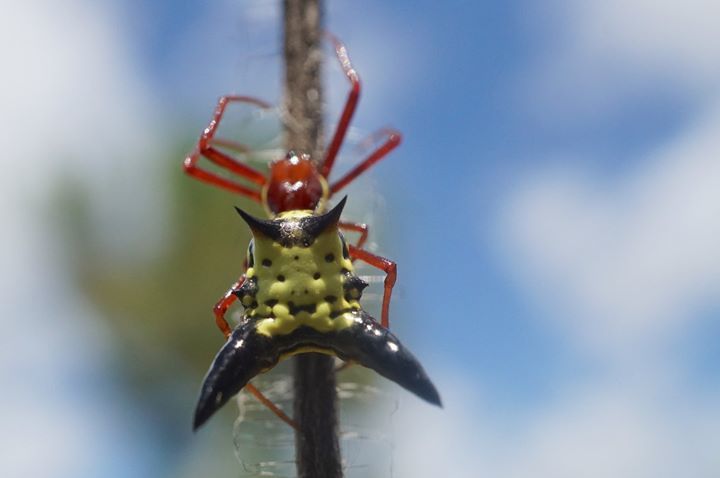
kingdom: Animalia
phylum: Arthropoda
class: Arachnida
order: Araneae
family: Araneidae
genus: Micrathena
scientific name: Micrathena sagittata
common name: Orb weavers
